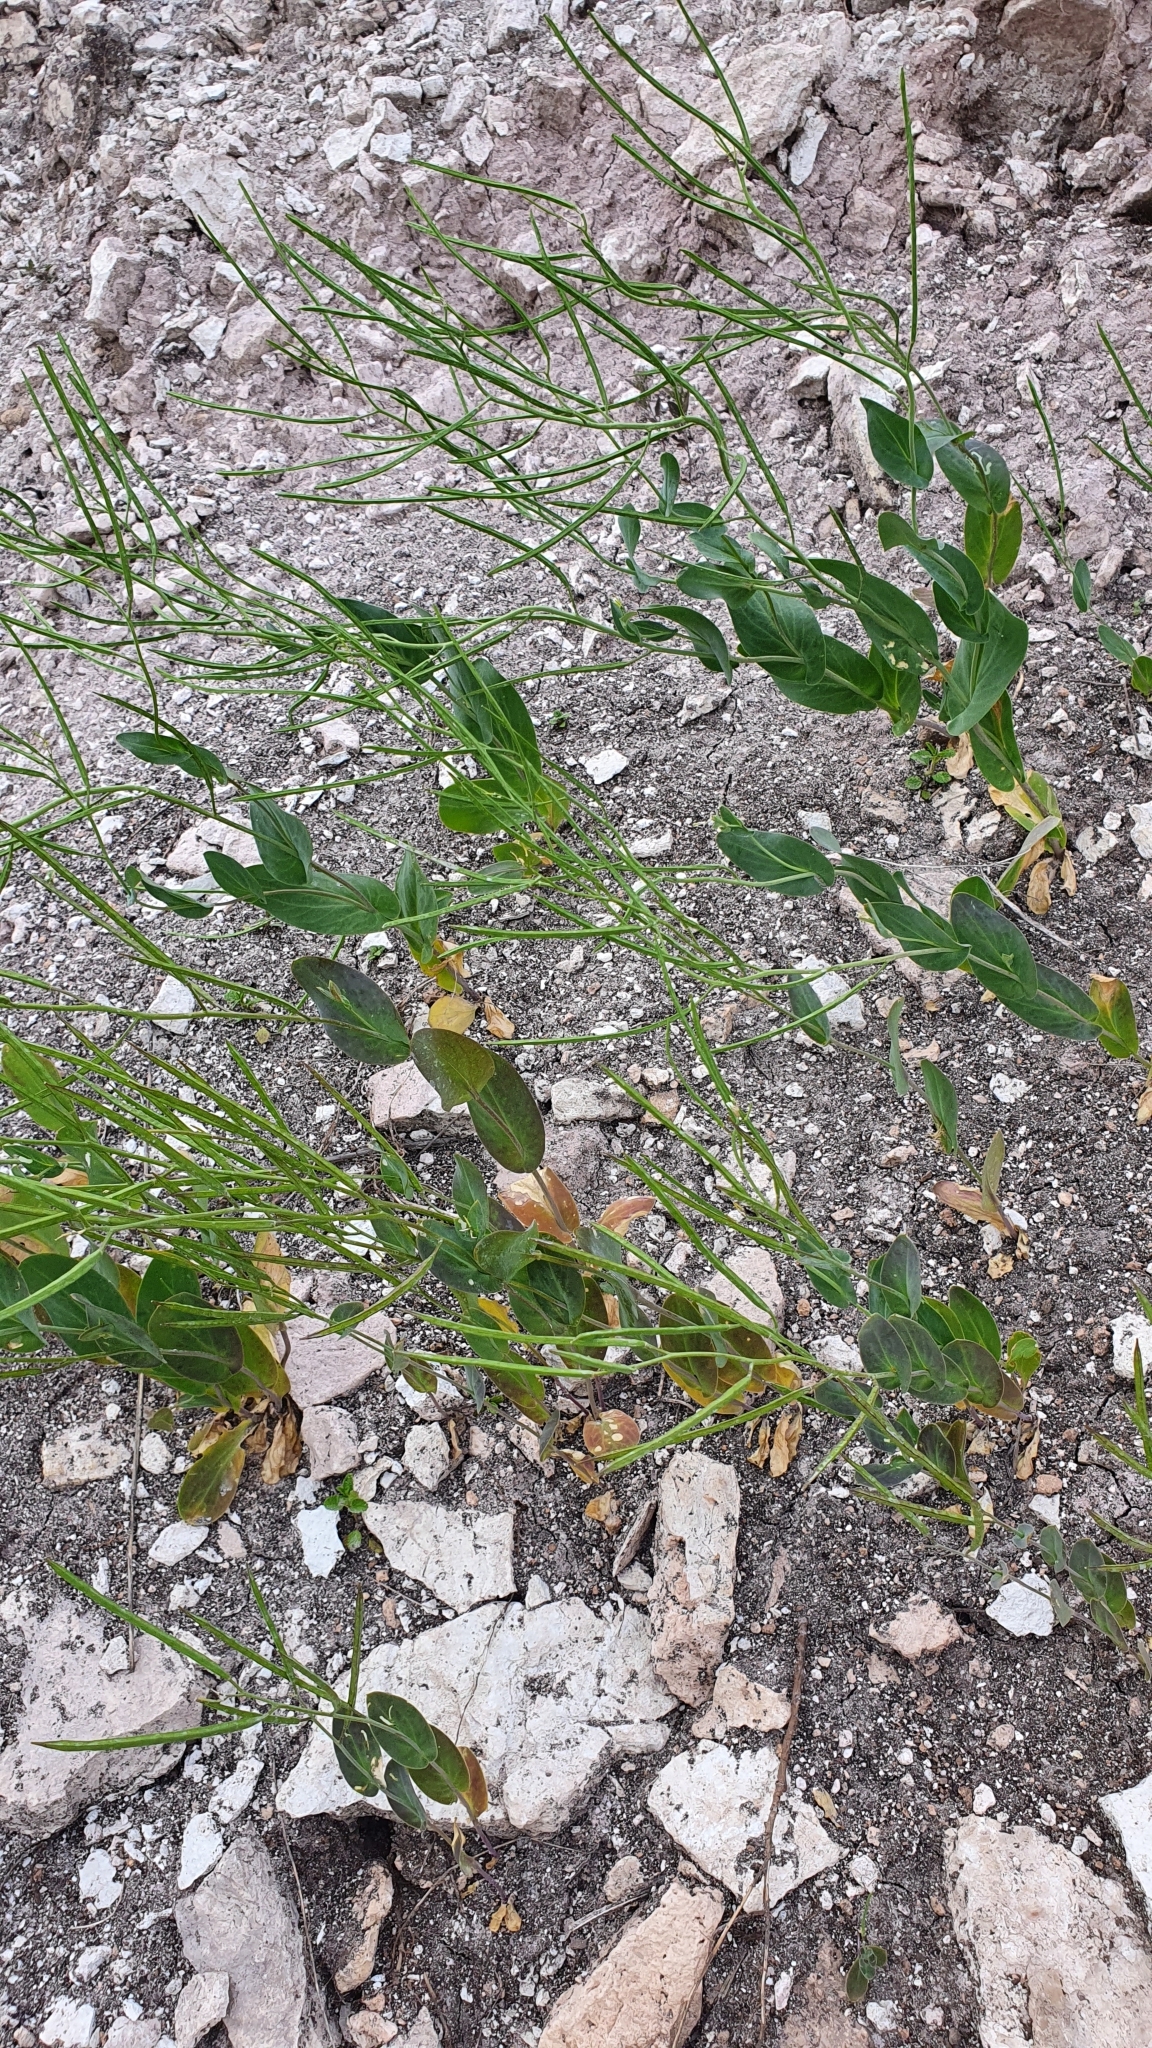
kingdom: Plantae
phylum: Tracheophyta
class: Magnoliopsida
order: Brassicales
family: Brassicaceae
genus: Conringia
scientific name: Conringia orientalis
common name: Hare's ear mustard
